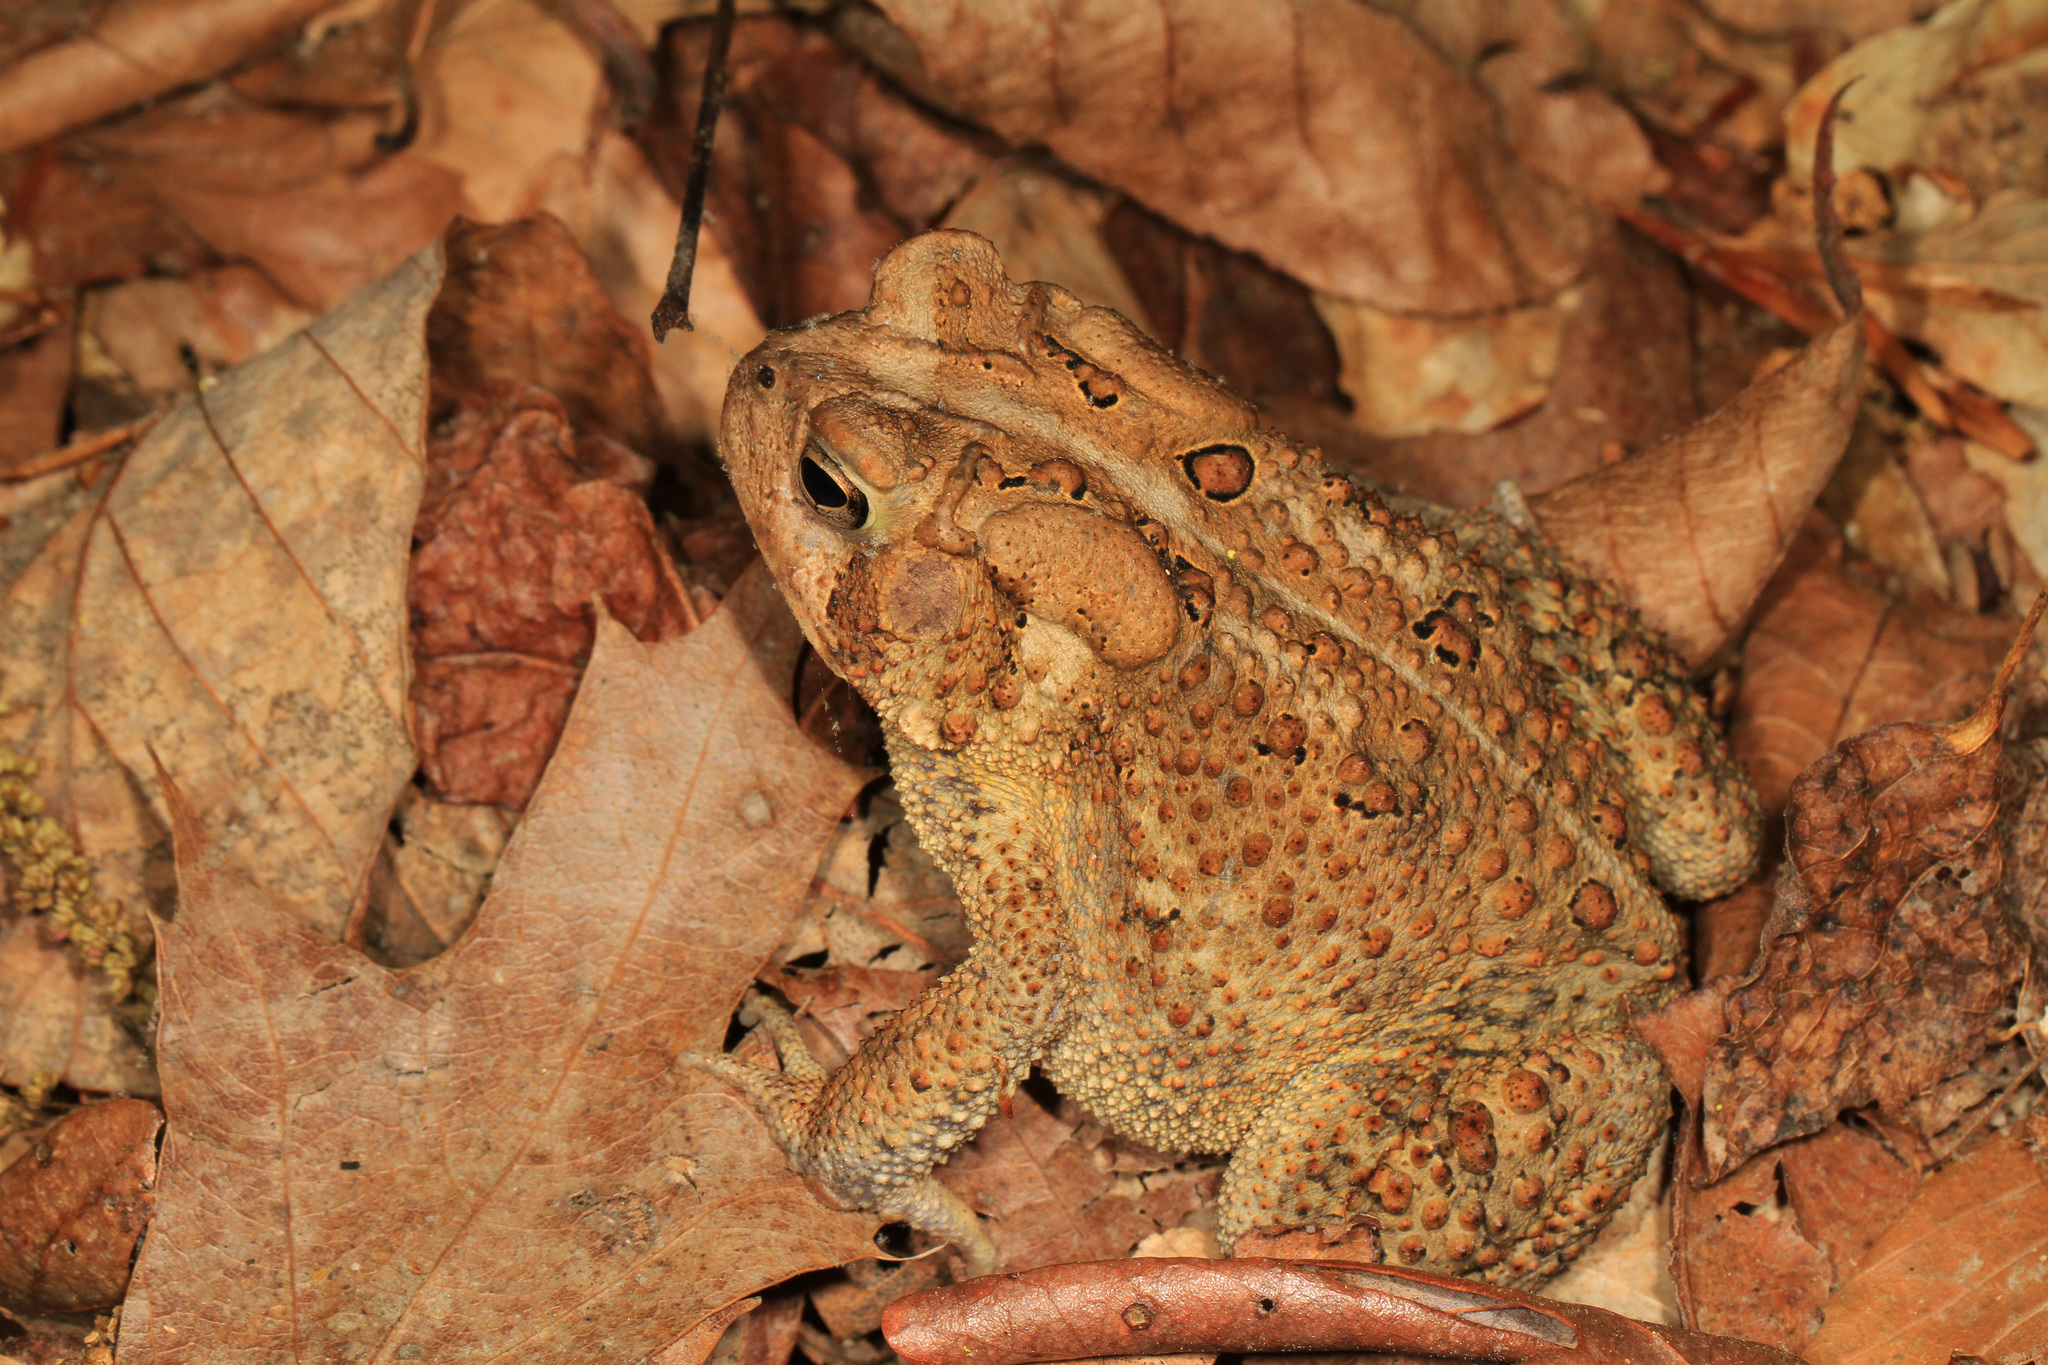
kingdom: Animalia
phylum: Chordata
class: Amphibia
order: Anura
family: Bufonidae
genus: Anaxyrus
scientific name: Anaxyrus americanus
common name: American toad
